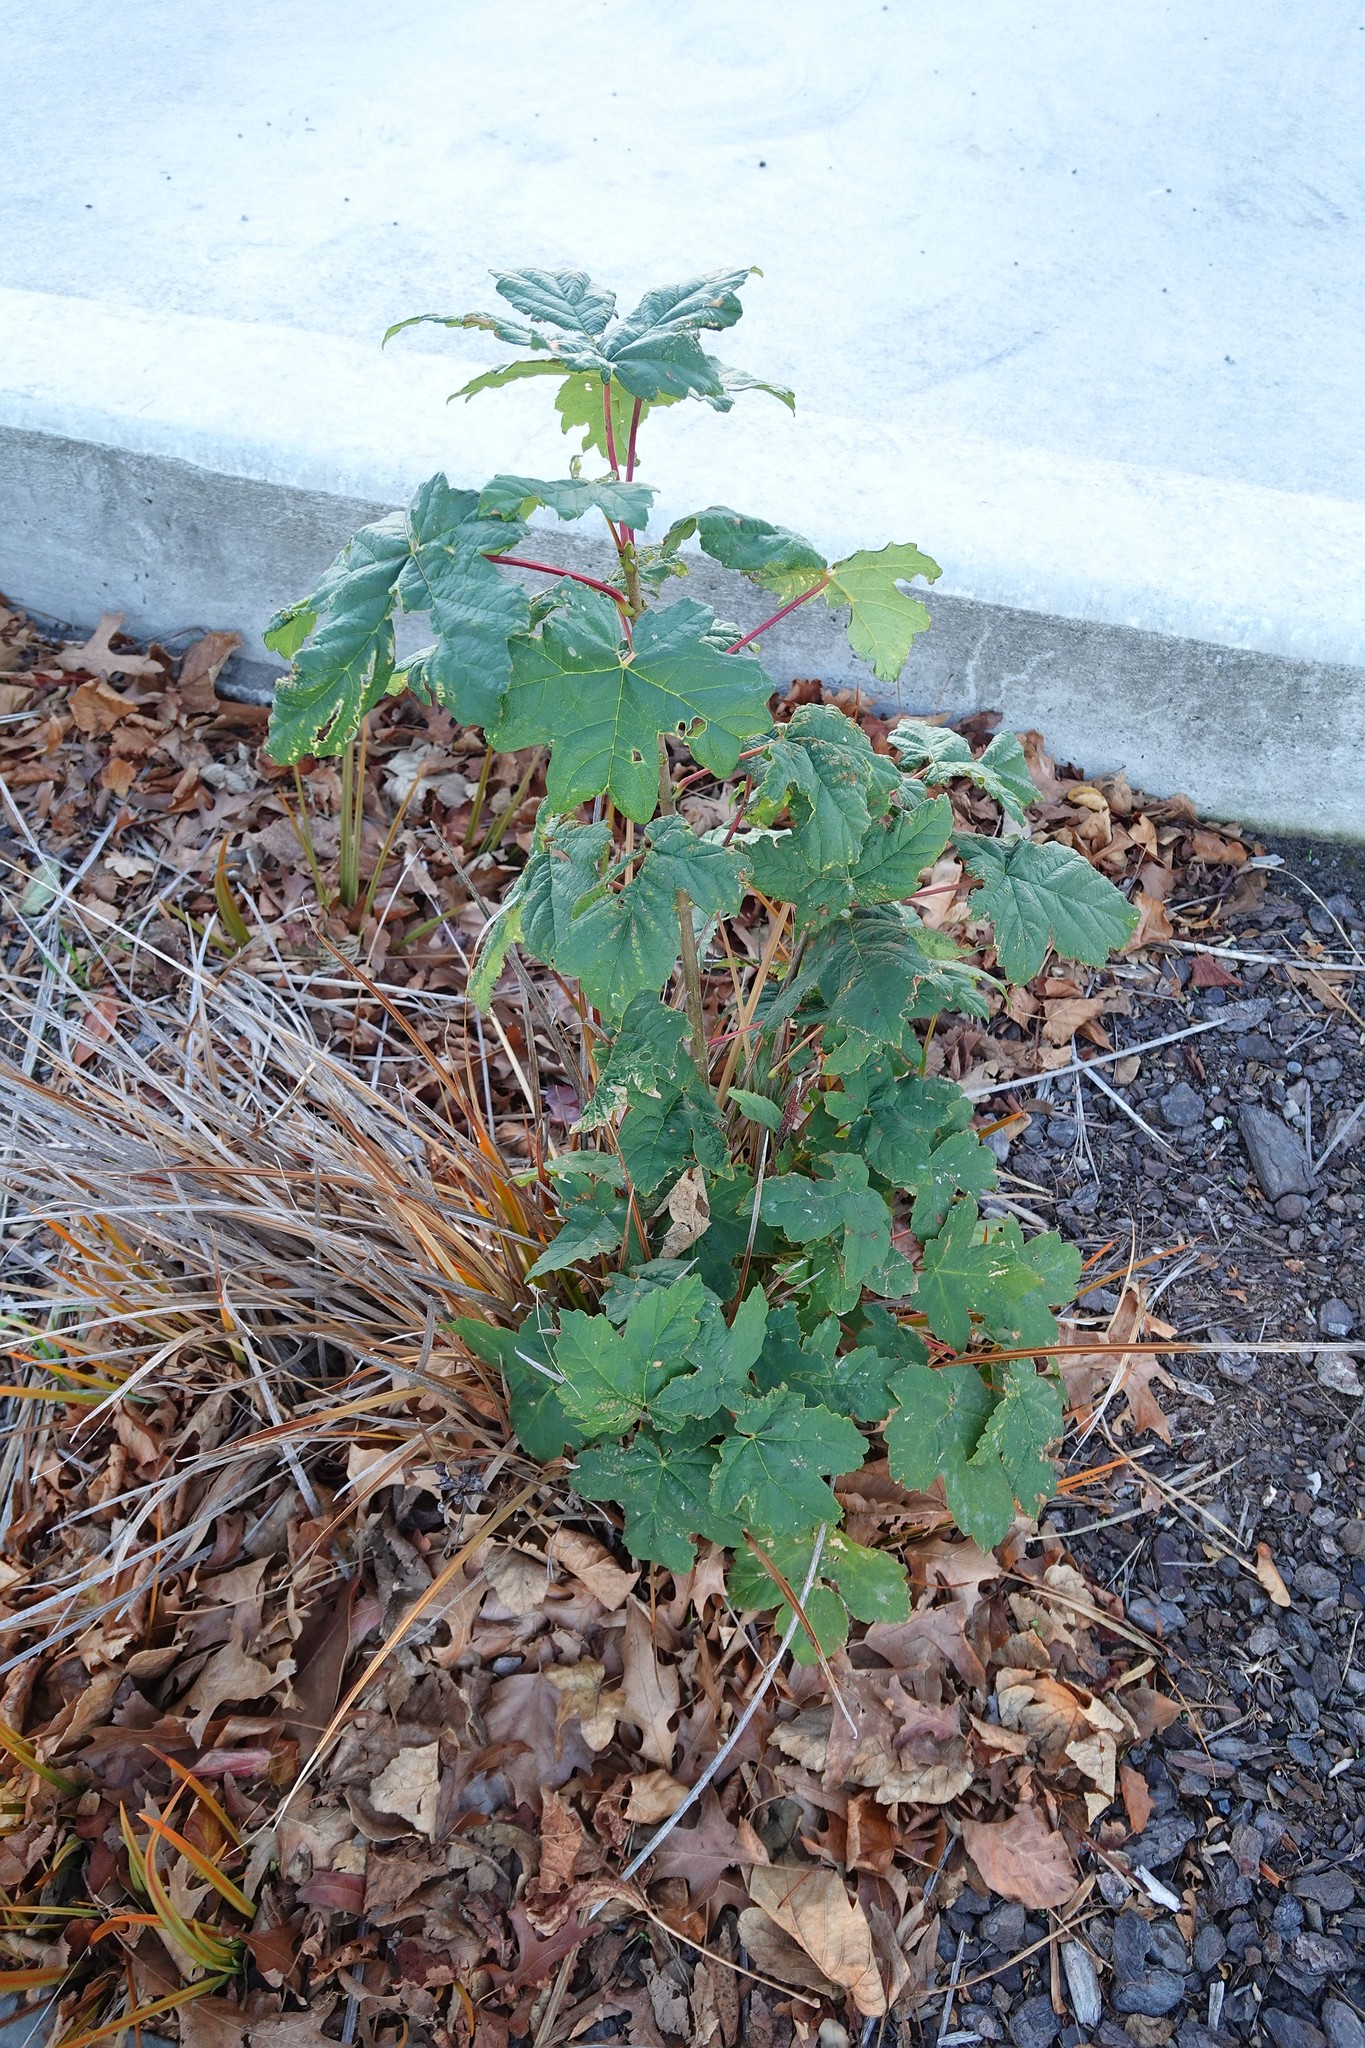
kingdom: Plantae
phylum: Tracheophyta
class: Magnoliopsida
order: Sapindales
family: Sapindaceae
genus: Acer
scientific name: Acer pseudoplatanus
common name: Sycamore
